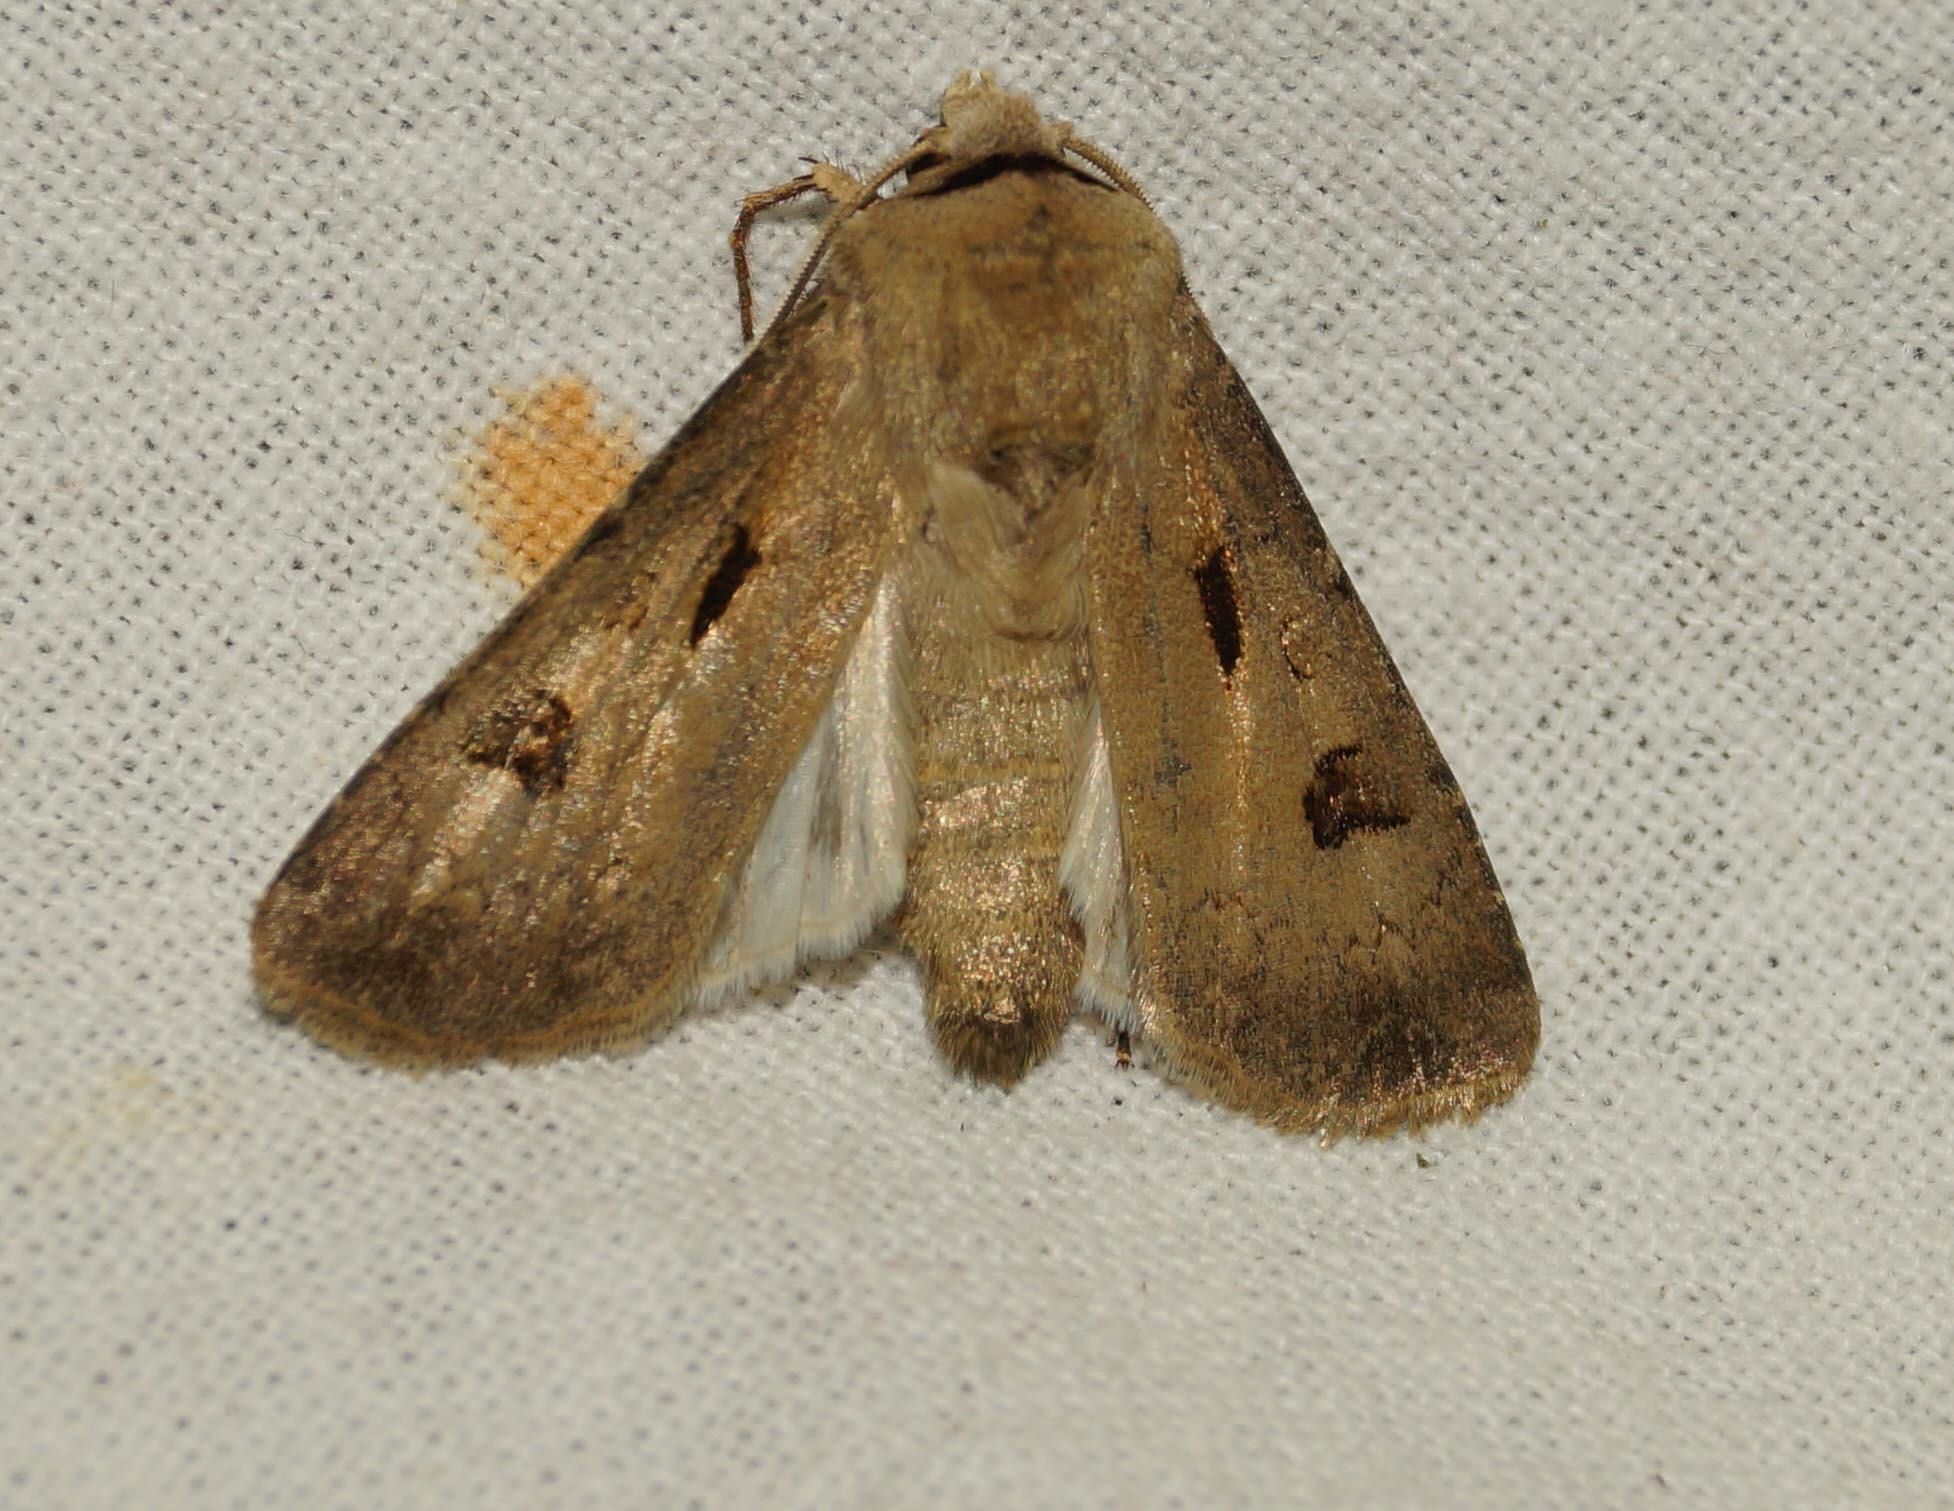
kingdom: Animalia
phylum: Arthropoda
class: Insecta
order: Lepidoptera
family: Noctuidae
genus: Agrotis
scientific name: Agrotis exclamationis
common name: Heart and dart
